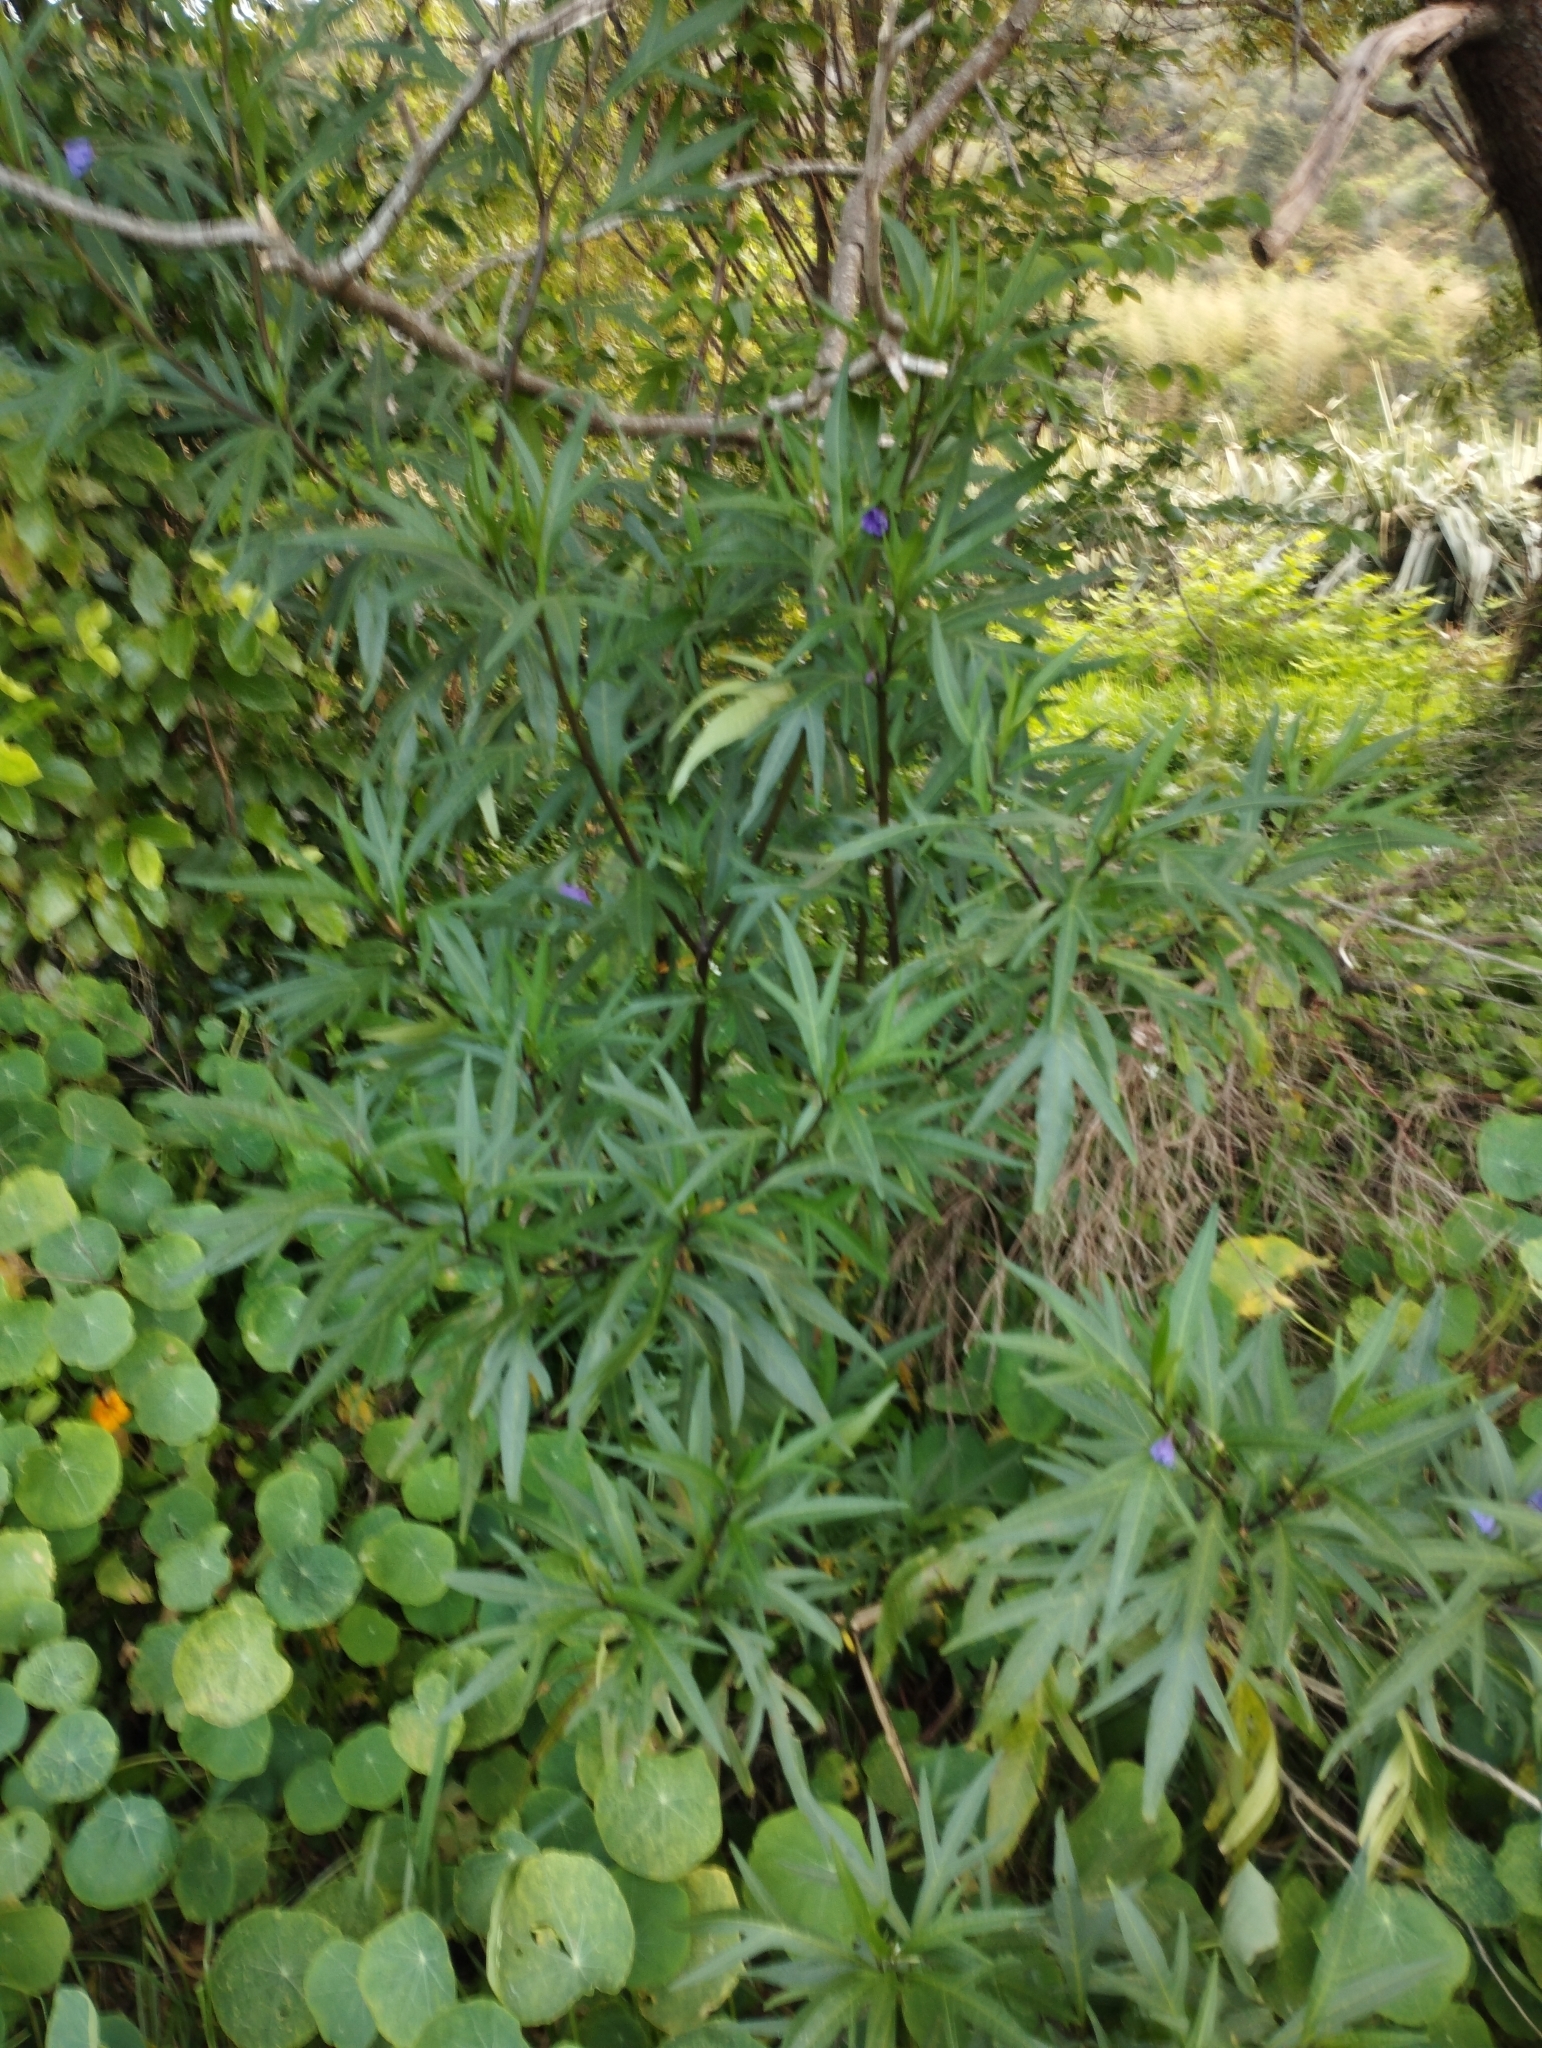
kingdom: Plantae
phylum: Tracheophyta
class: Magnoliopsida
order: Solanales
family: Solanaceae
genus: Solanum
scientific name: Solanum laciniatum
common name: Kangaroo-apple
